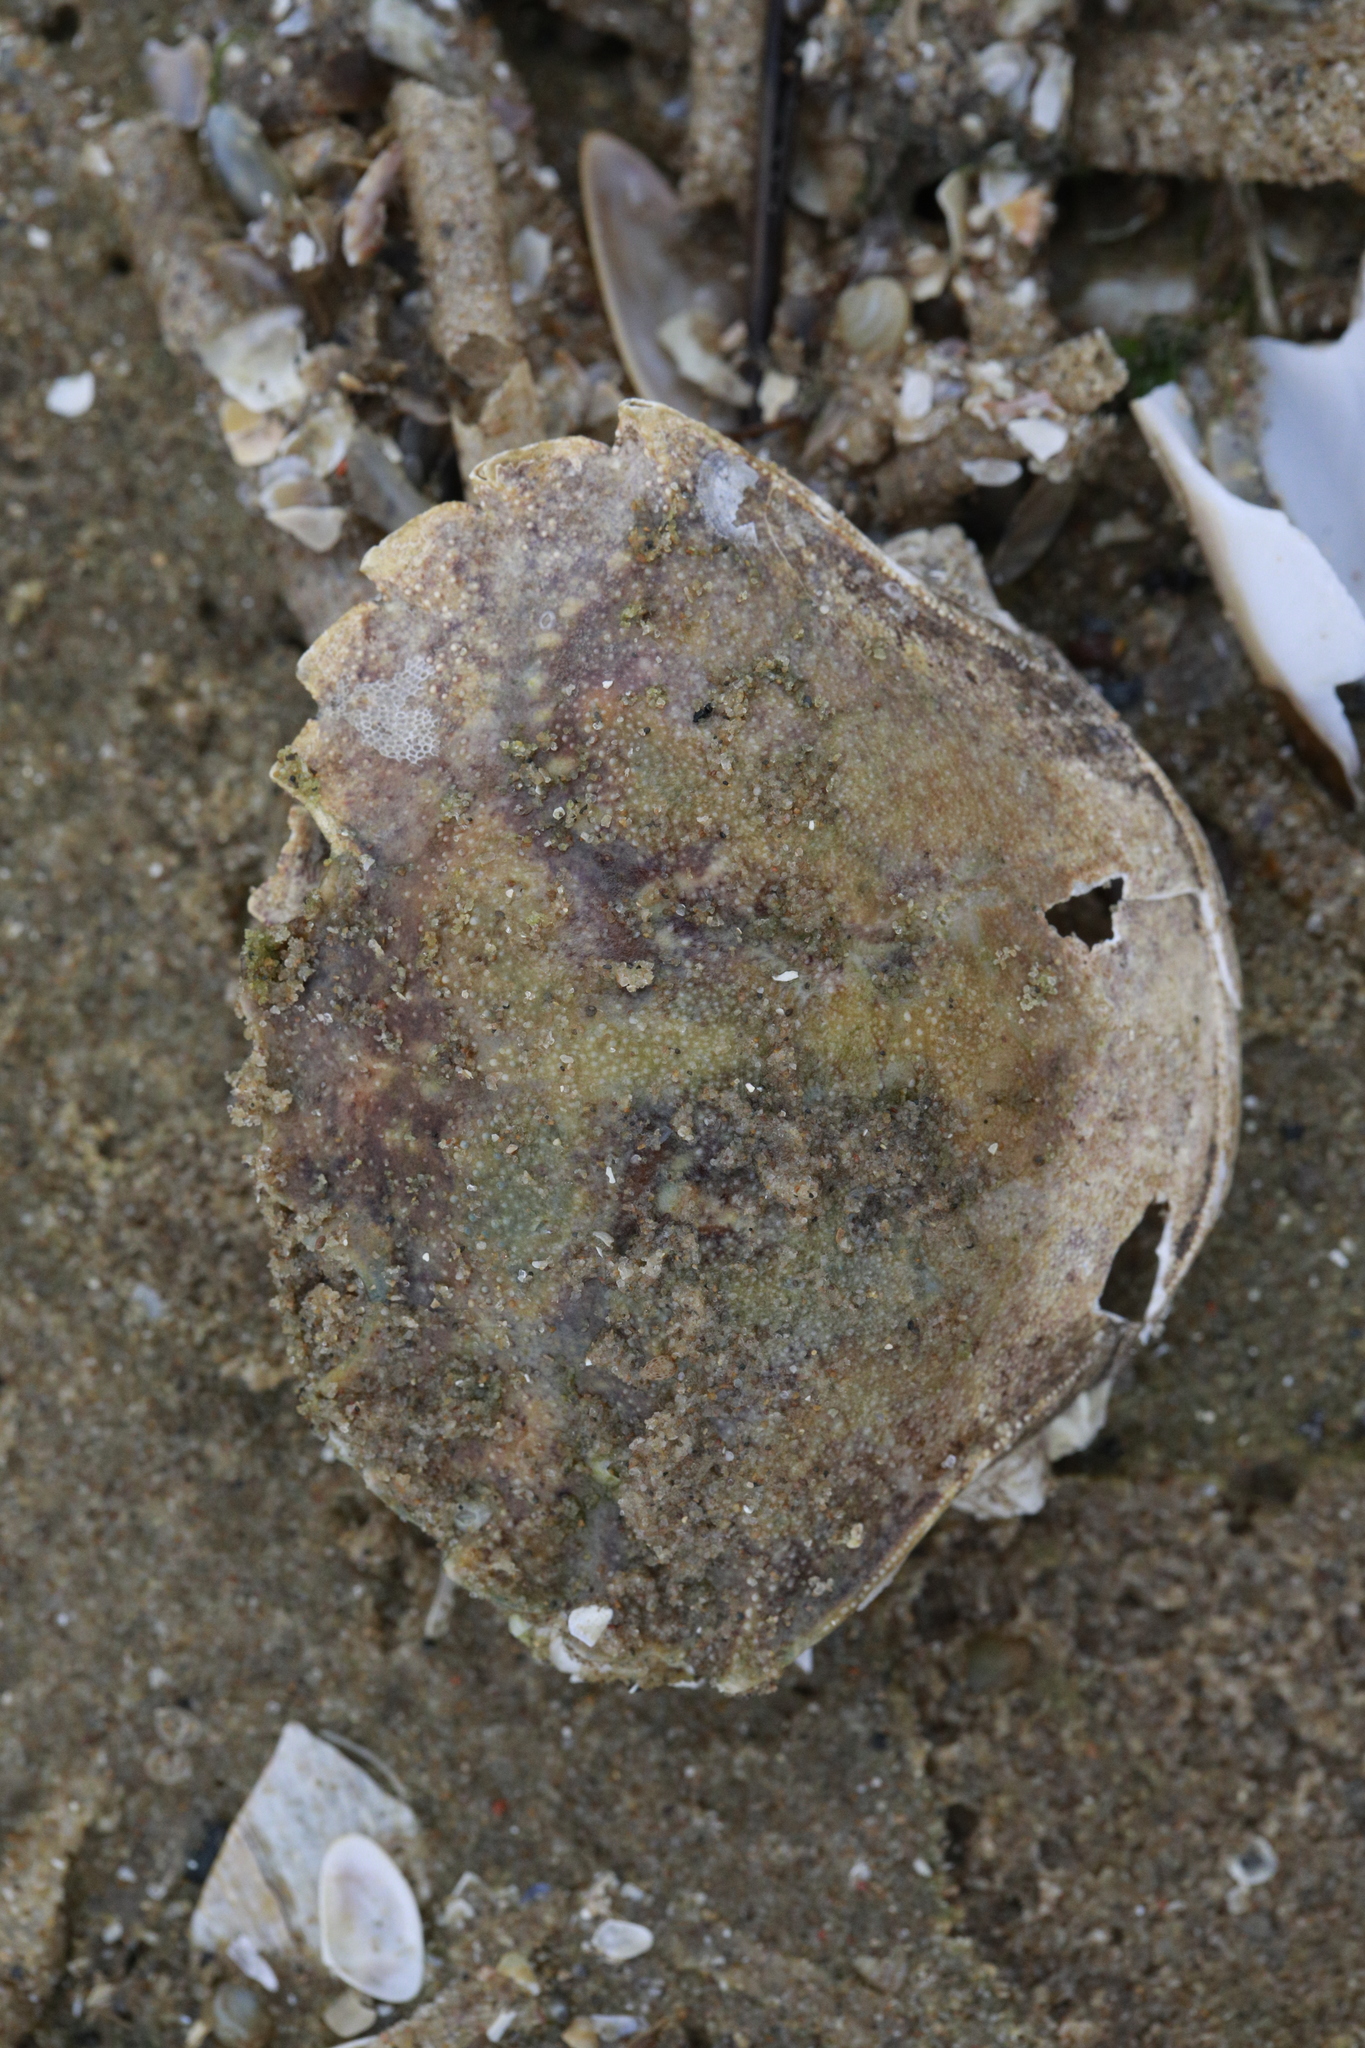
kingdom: Animalia
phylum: Arthropoda
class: Malacostraca
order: Decapoda
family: Carcinidae
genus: Carcinus
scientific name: Carcinus maenas
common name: European green crab
